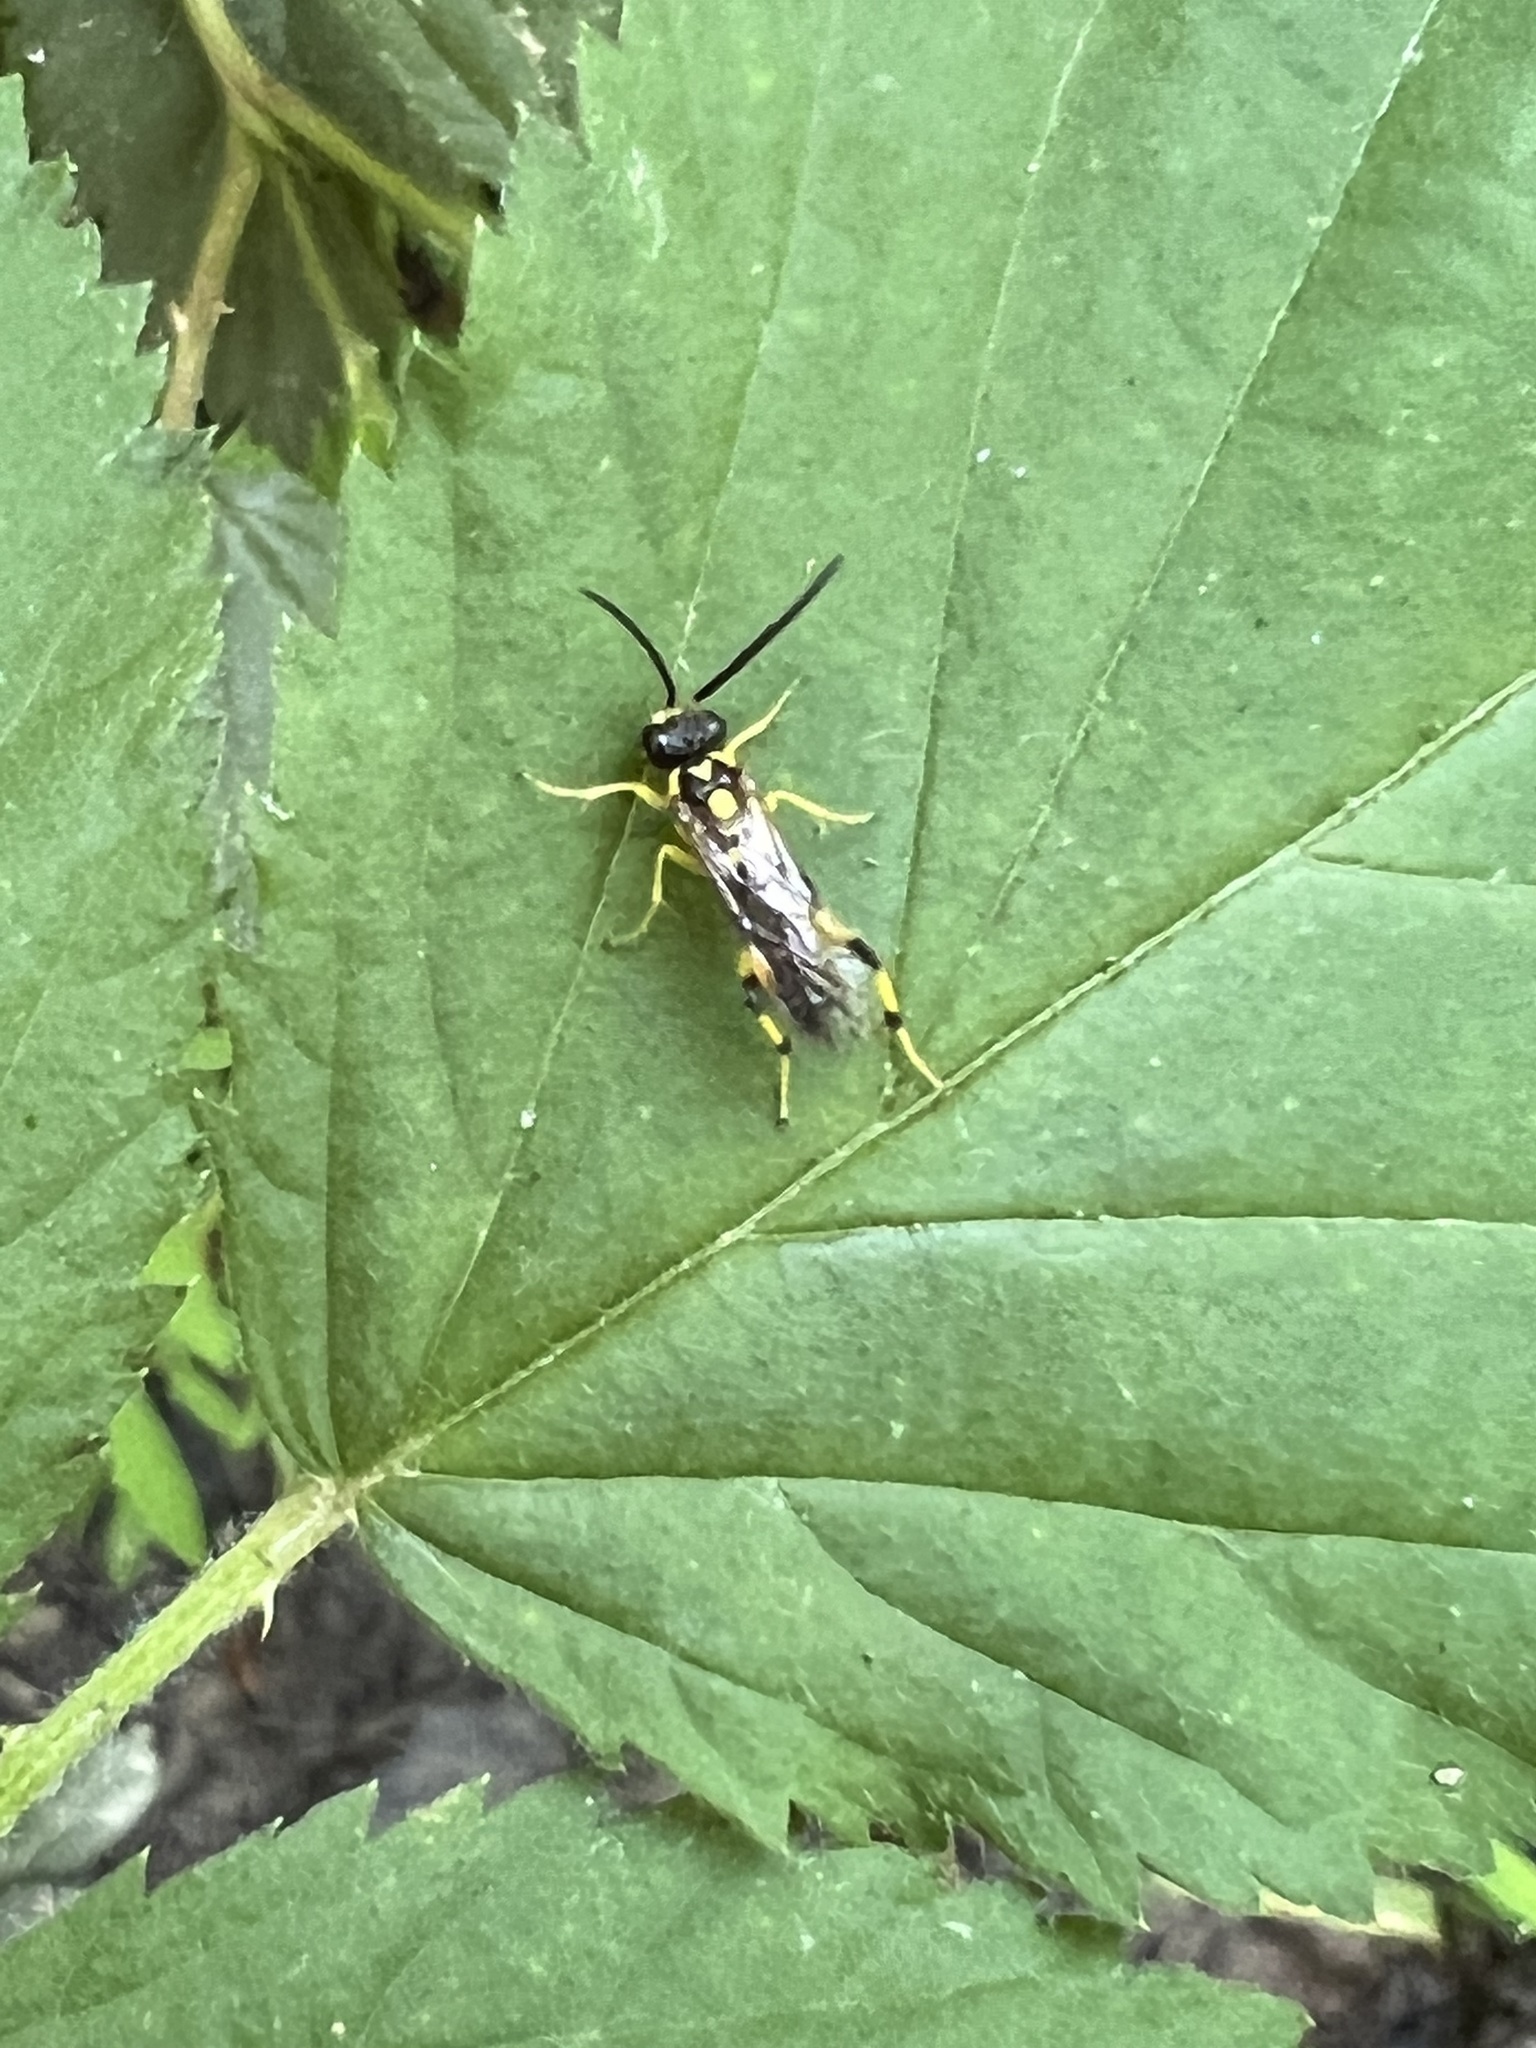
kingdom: Animalia
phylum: Arthropoda
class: Insecta
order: Hymenoptera
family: Tenthredinidae
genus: Macrophya
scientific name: Macrophya formosa
